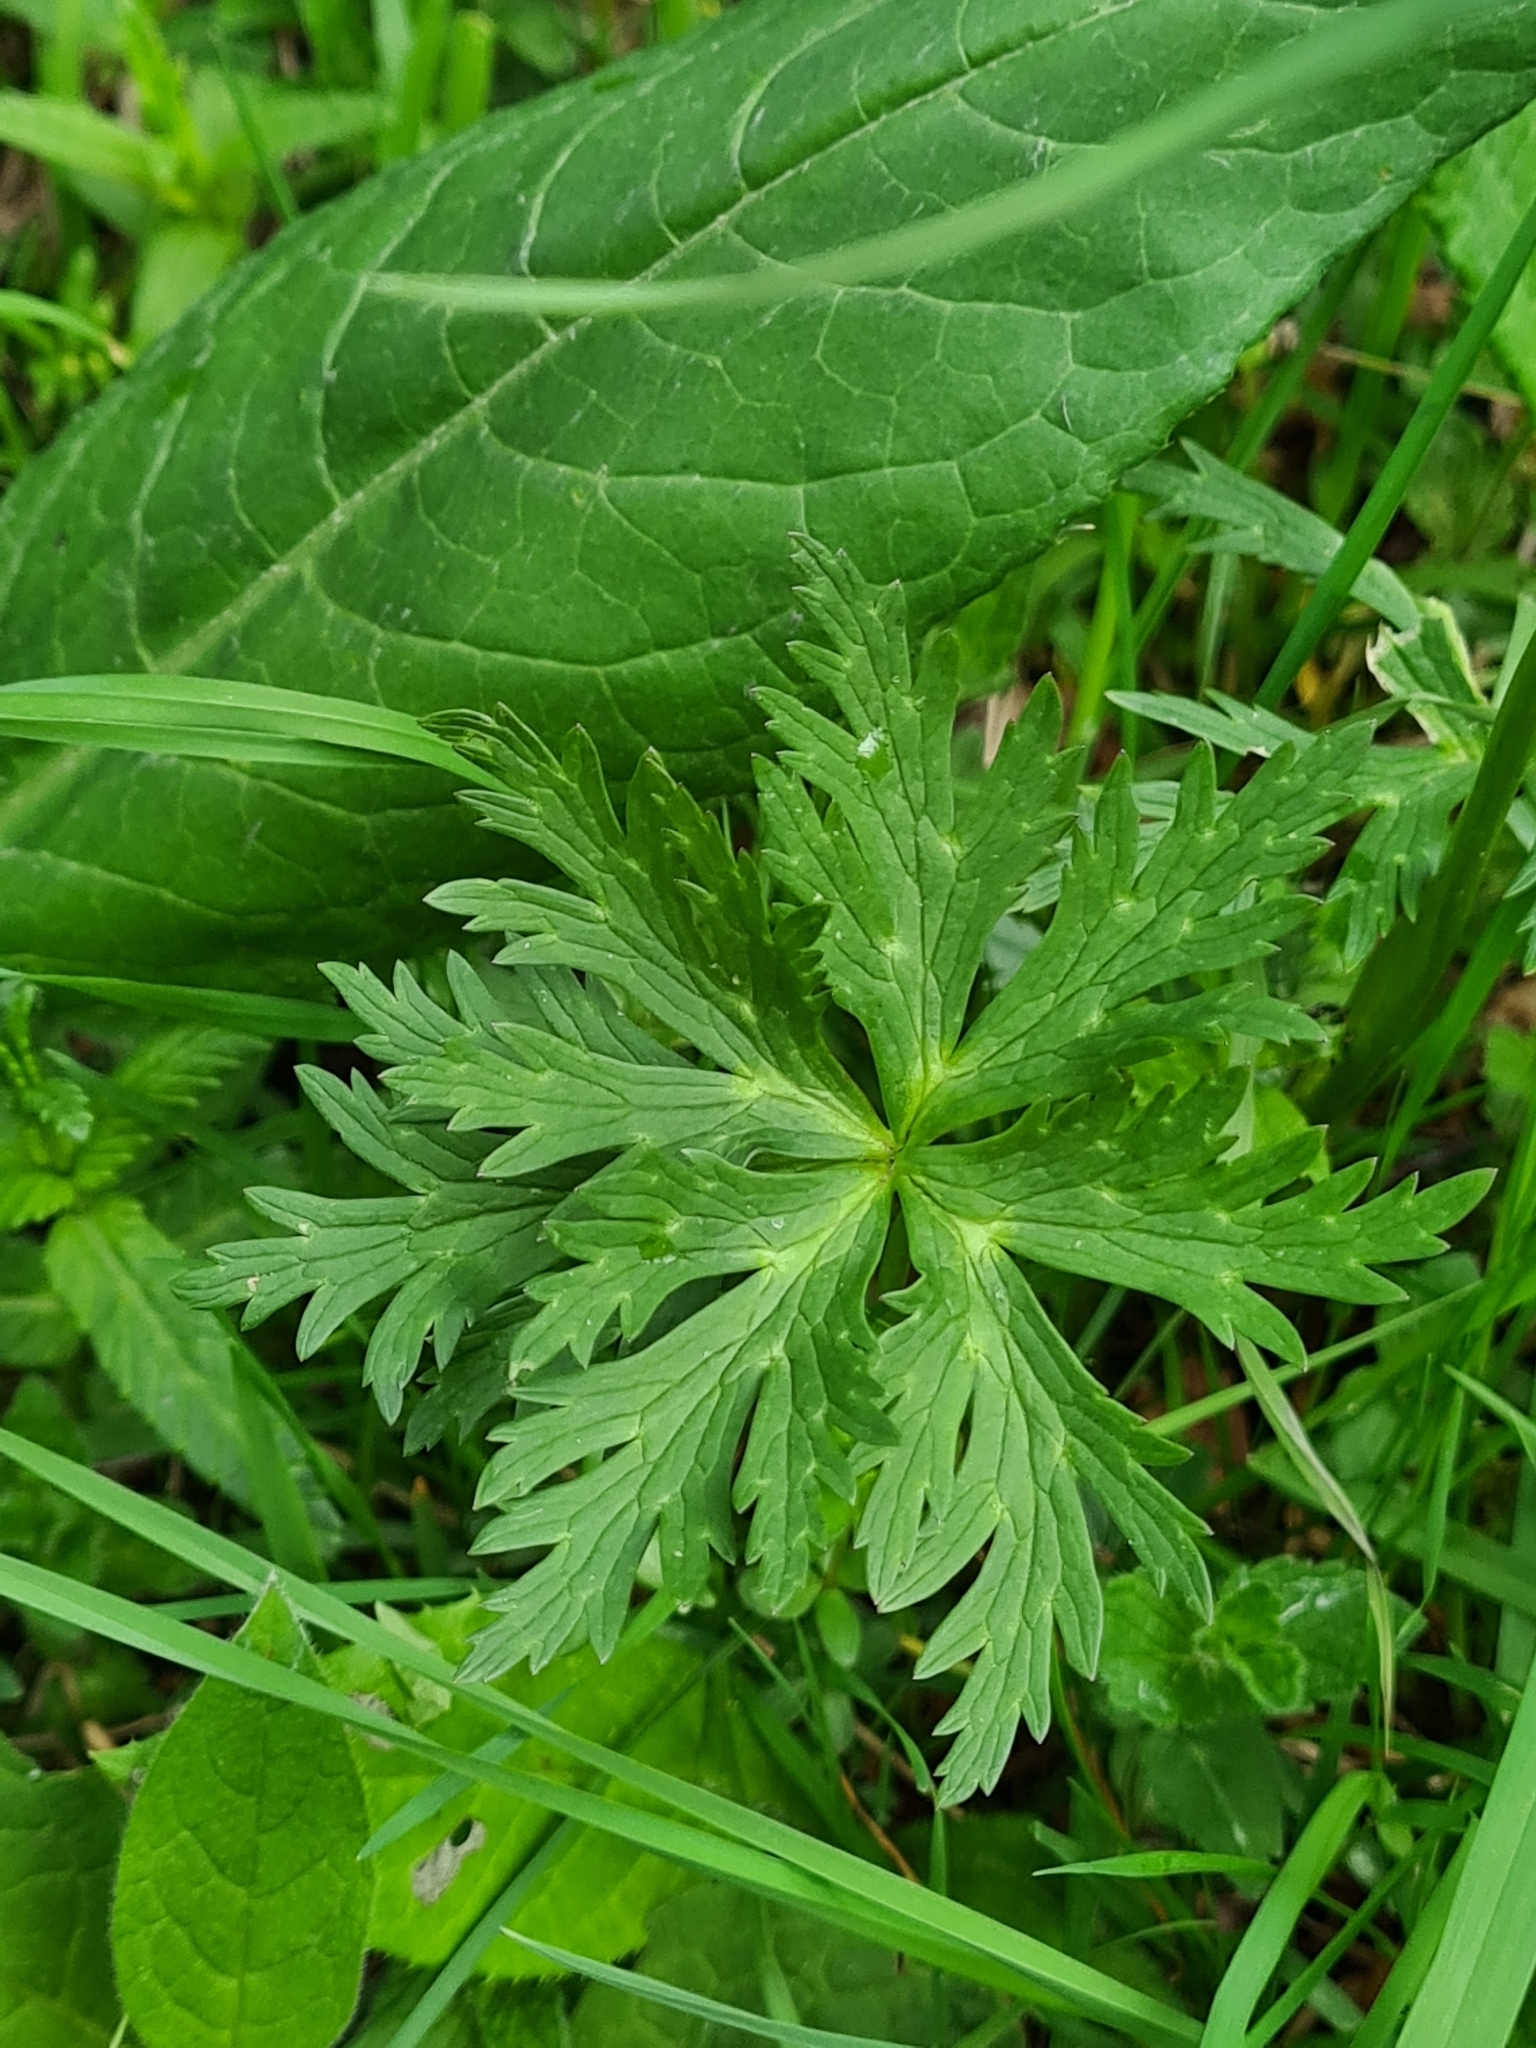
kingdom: Plantae
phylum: Tracheophyta
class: Magnoliopsida
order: Ranunculales
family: Ranunculaceae
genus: Trollius
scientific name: Trollius europaeus
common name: European globeflower
